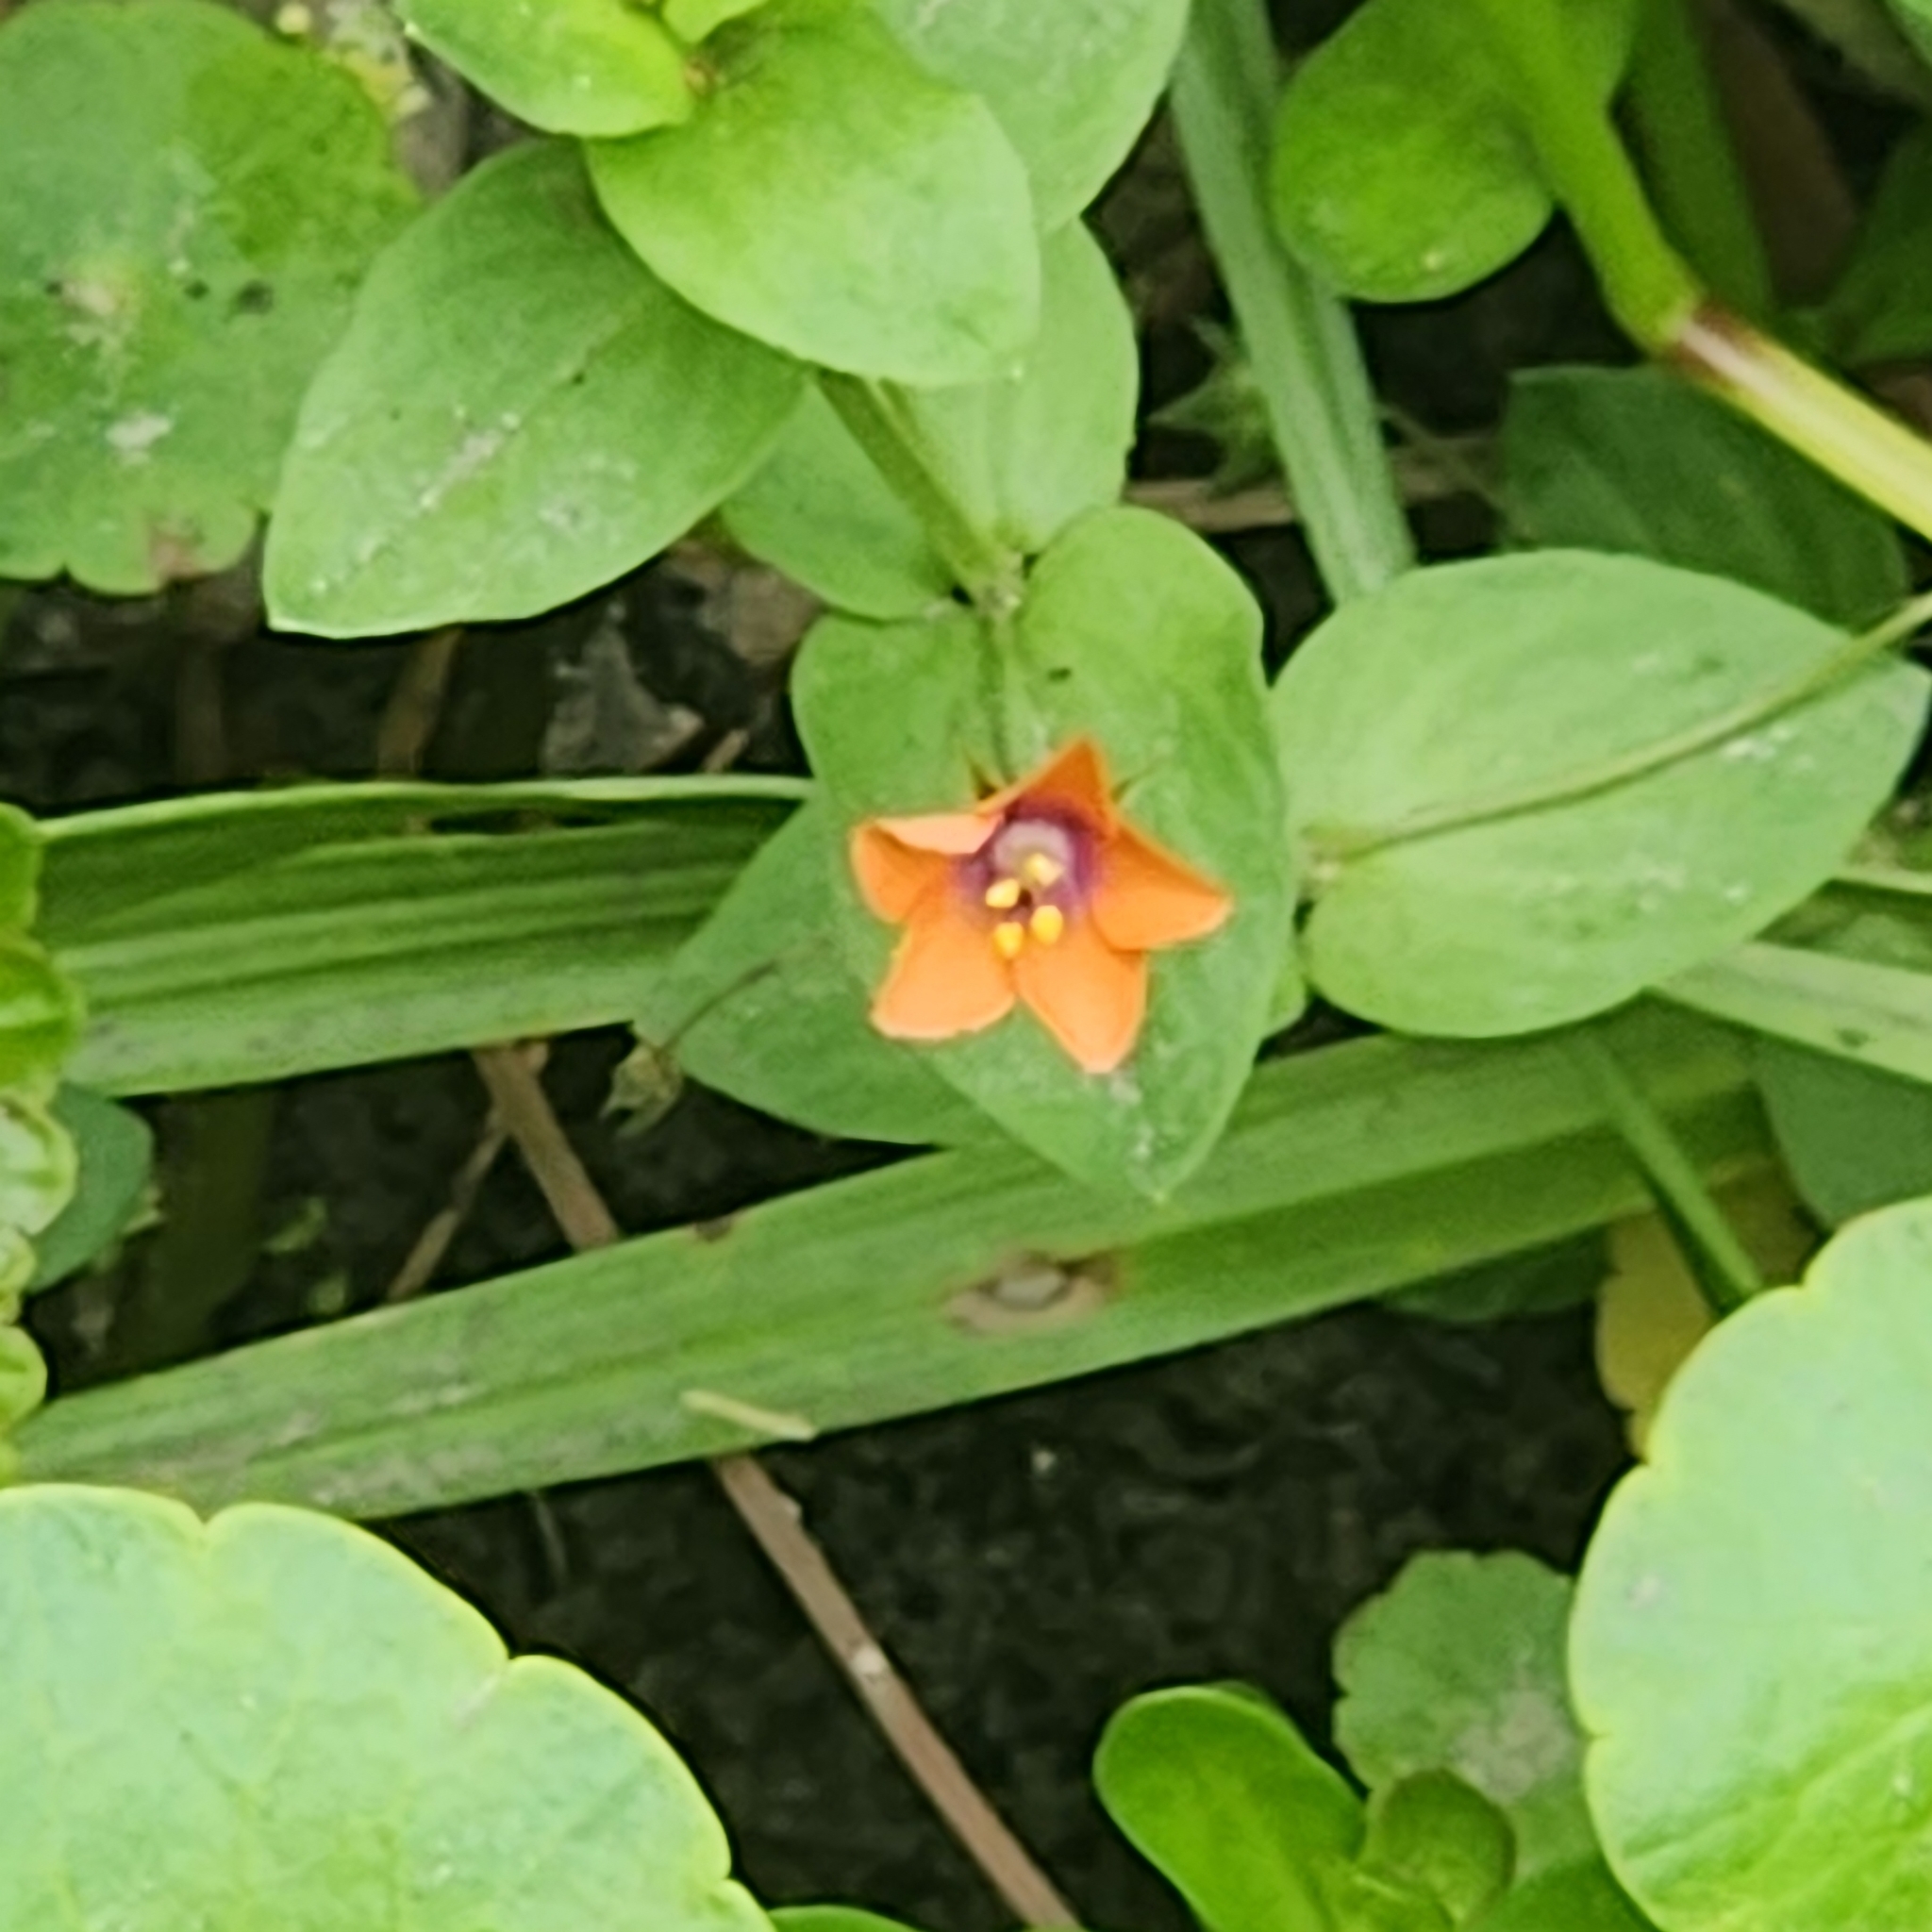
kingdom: Plantae
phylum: Tracheophyta
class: Magnoliopsida
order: Ericales
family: Primulaceae
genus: Lysimachia
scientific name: Lysimachia arvensis
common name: Scarlet pimpernel
